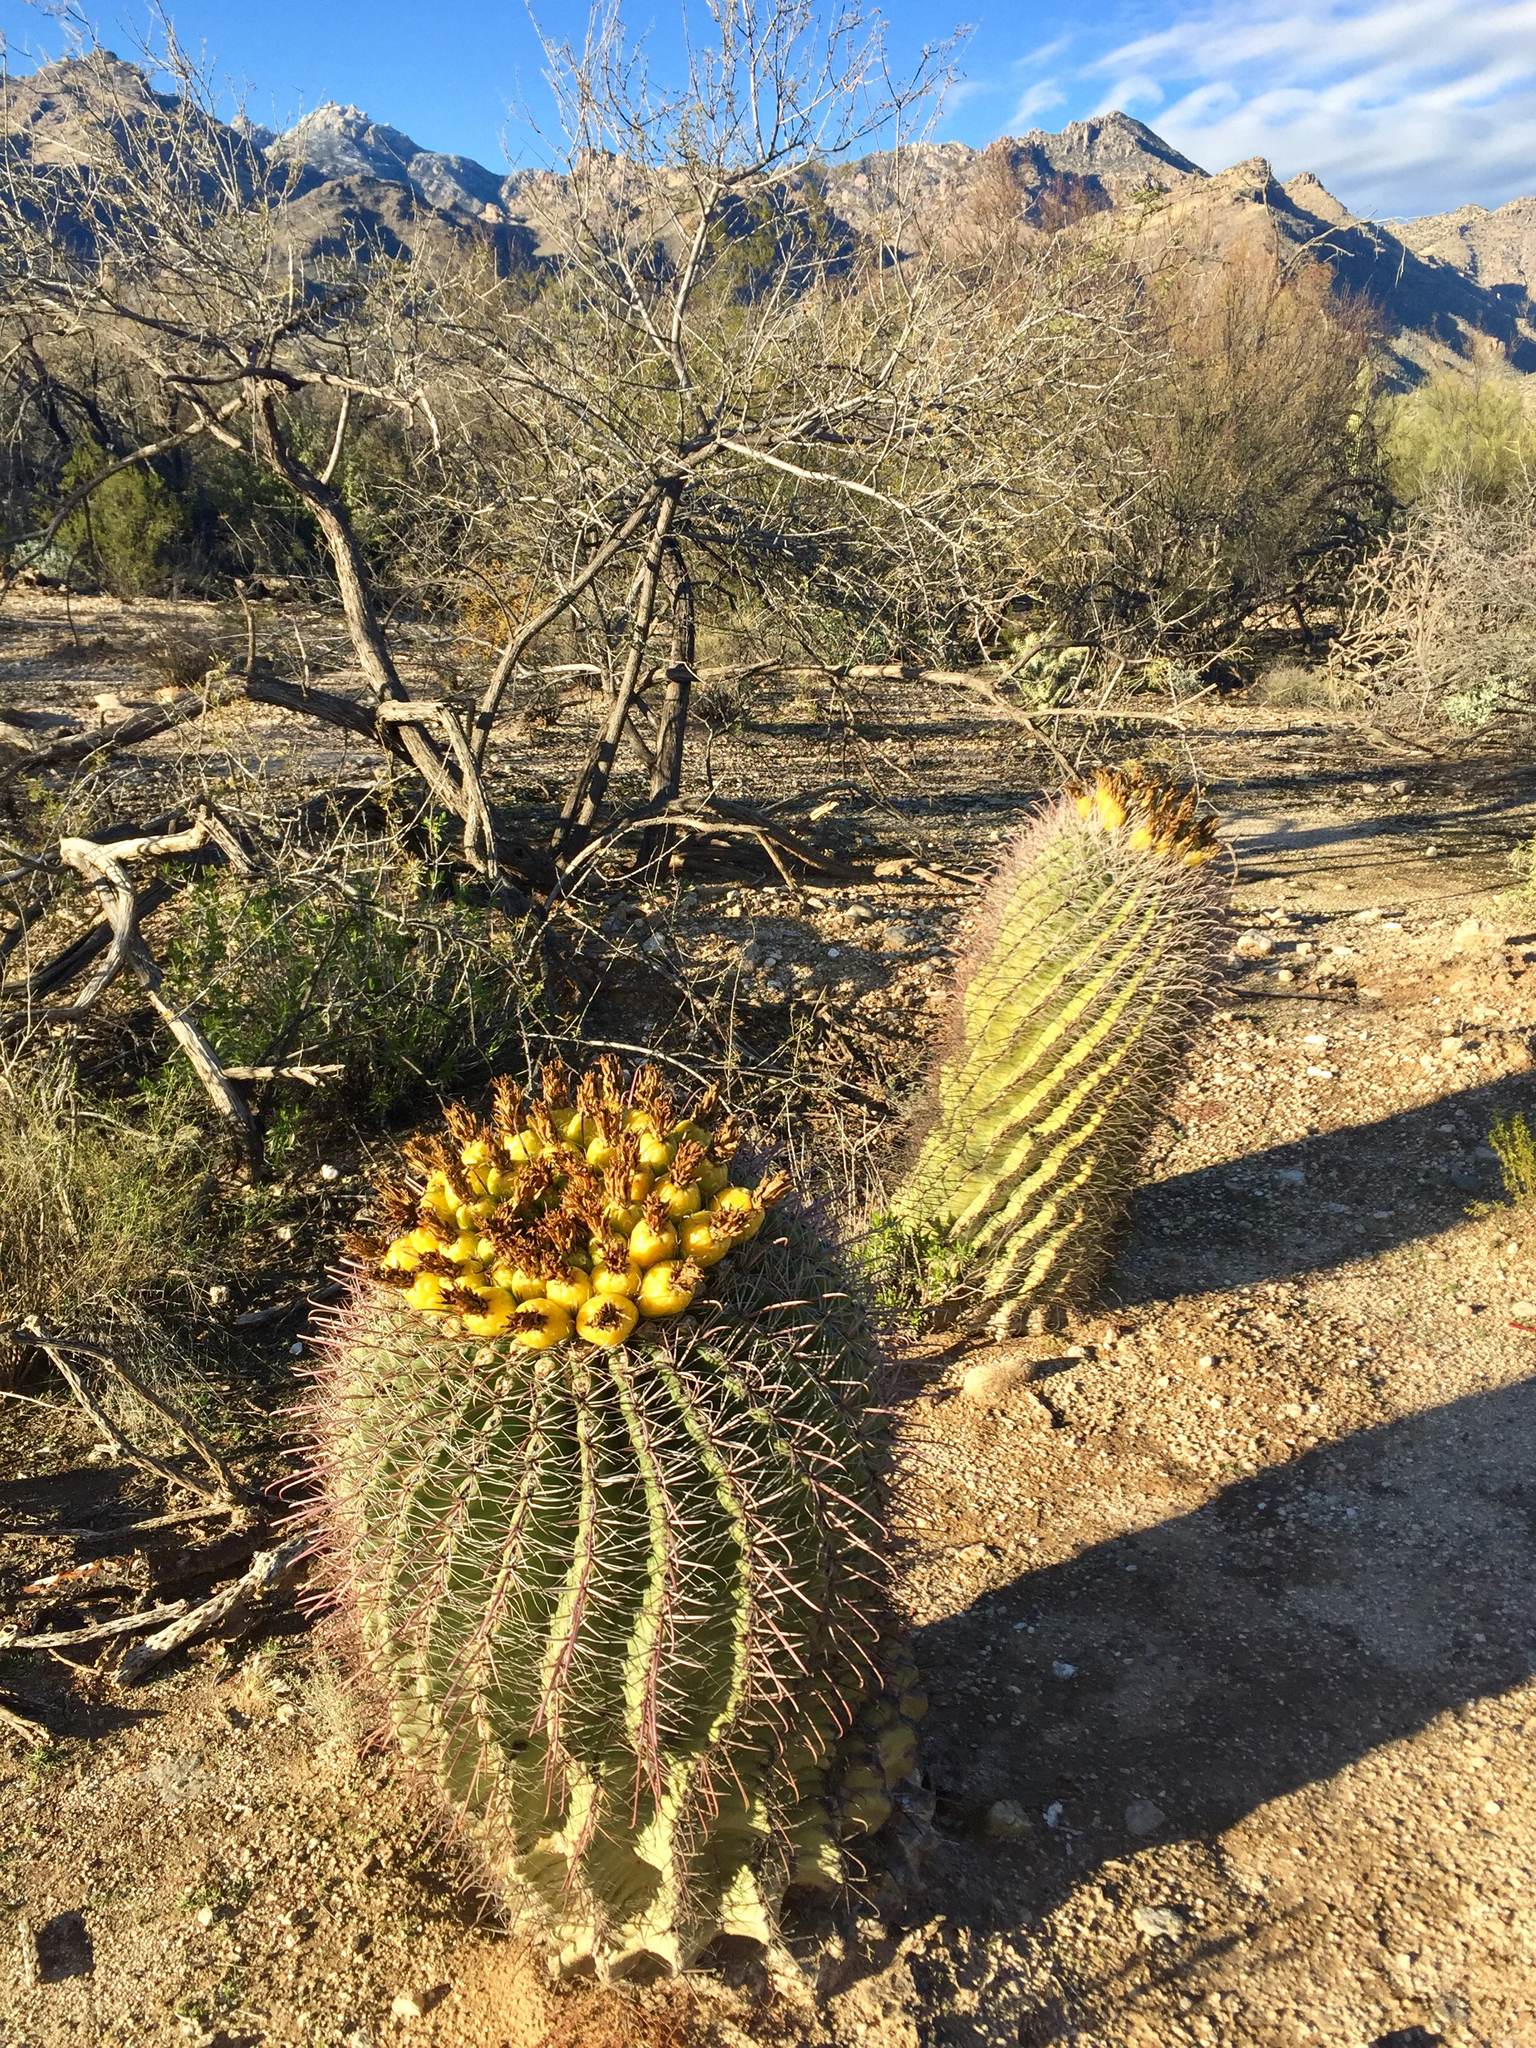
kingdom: Plantae
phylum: Tracheophyta
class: Magnoliopsida
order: Caryophyllales
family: Cactaceae
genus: Ferocactus
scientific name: Ferocactus wislizeni
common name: Candy barrel cactus
